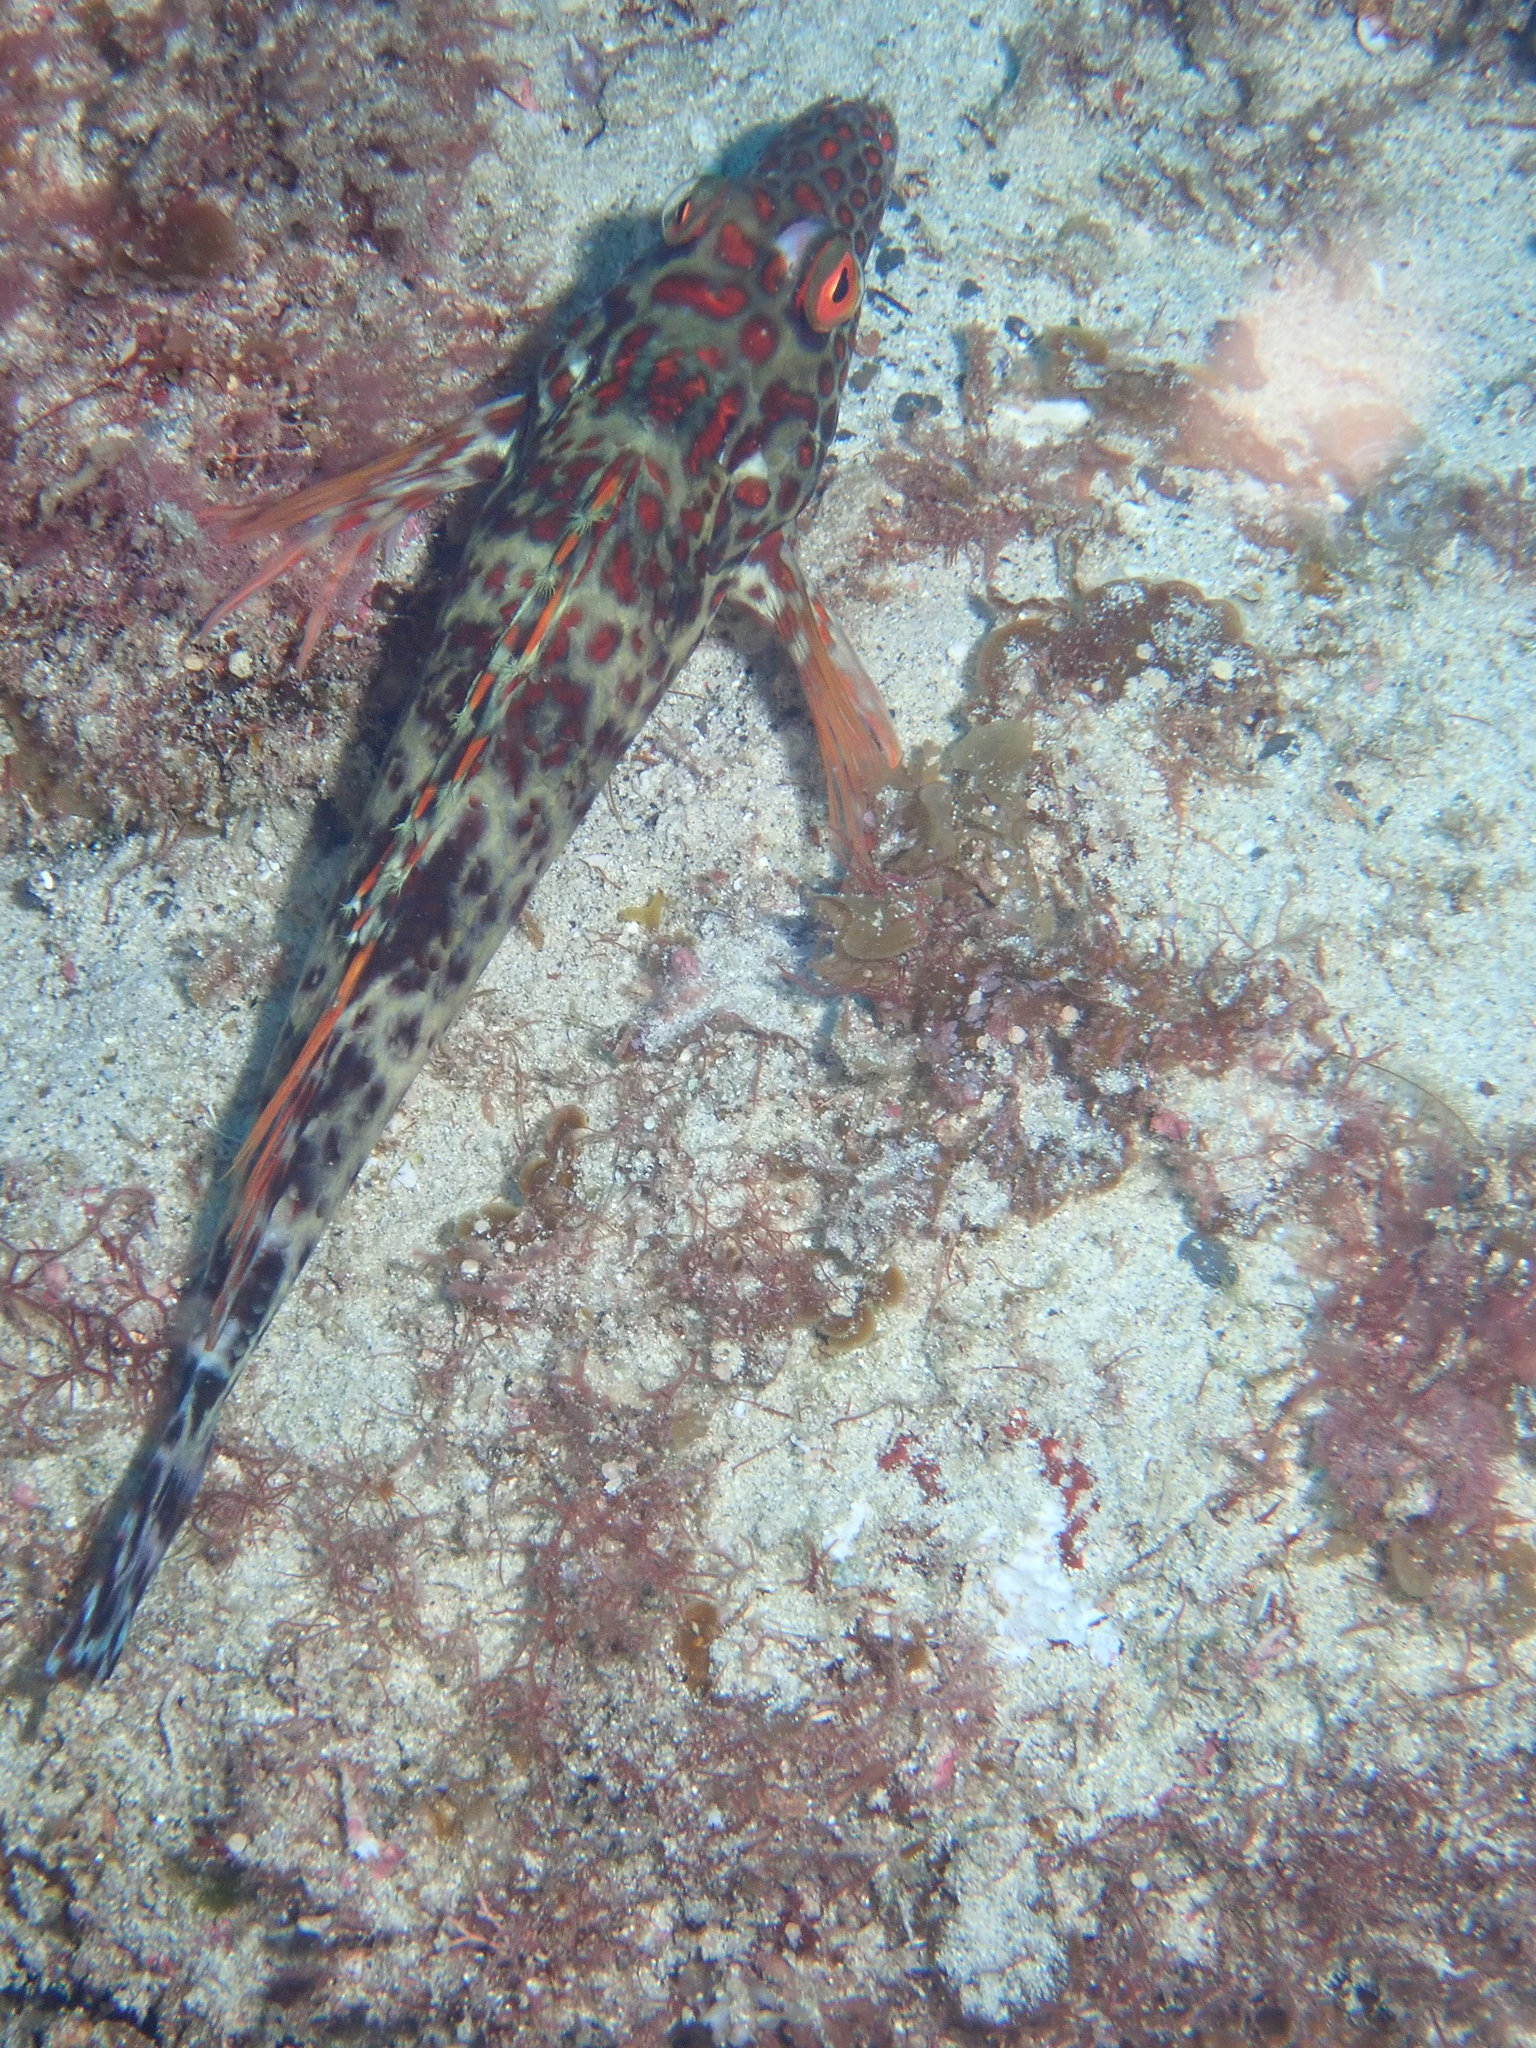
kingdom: Animalia
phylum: Chordata
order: Perciformes
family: Cirrhitidae
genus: Notocirrhitus
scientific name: Notocirrhitus splendens
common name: Splendid hawkfish
